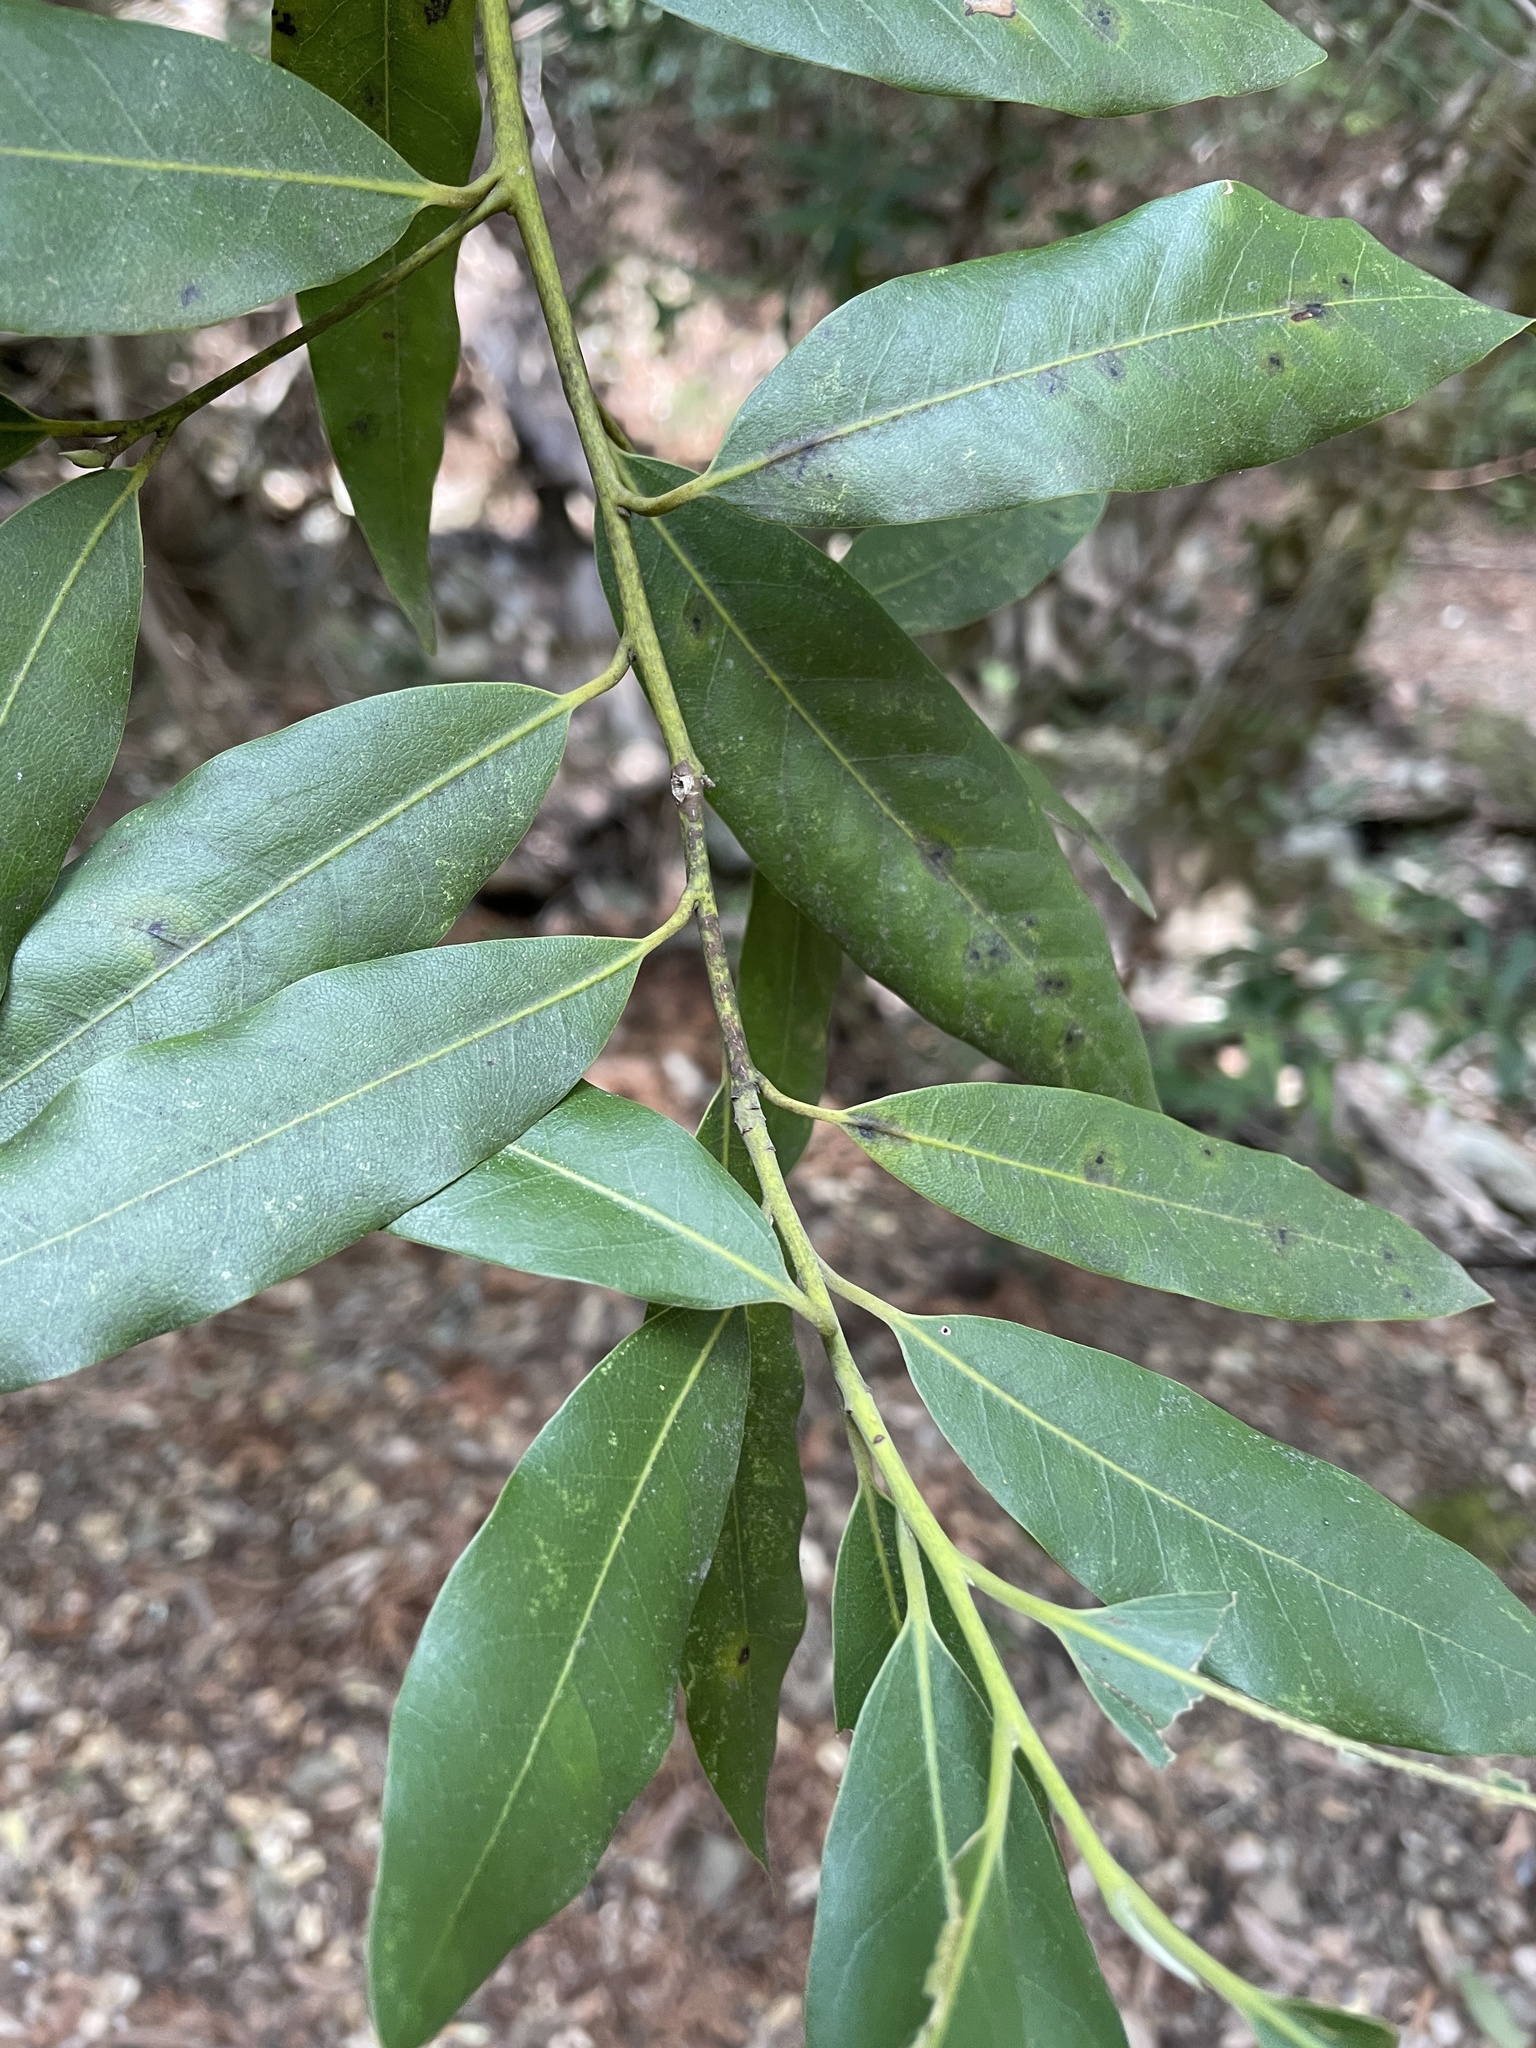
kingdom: Plantae
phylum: Tracheophyta
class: Magnoliopsida
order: Laurales
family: Lauraceae
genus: Umbellularia
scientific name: Umbellularia californica
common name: California bay
